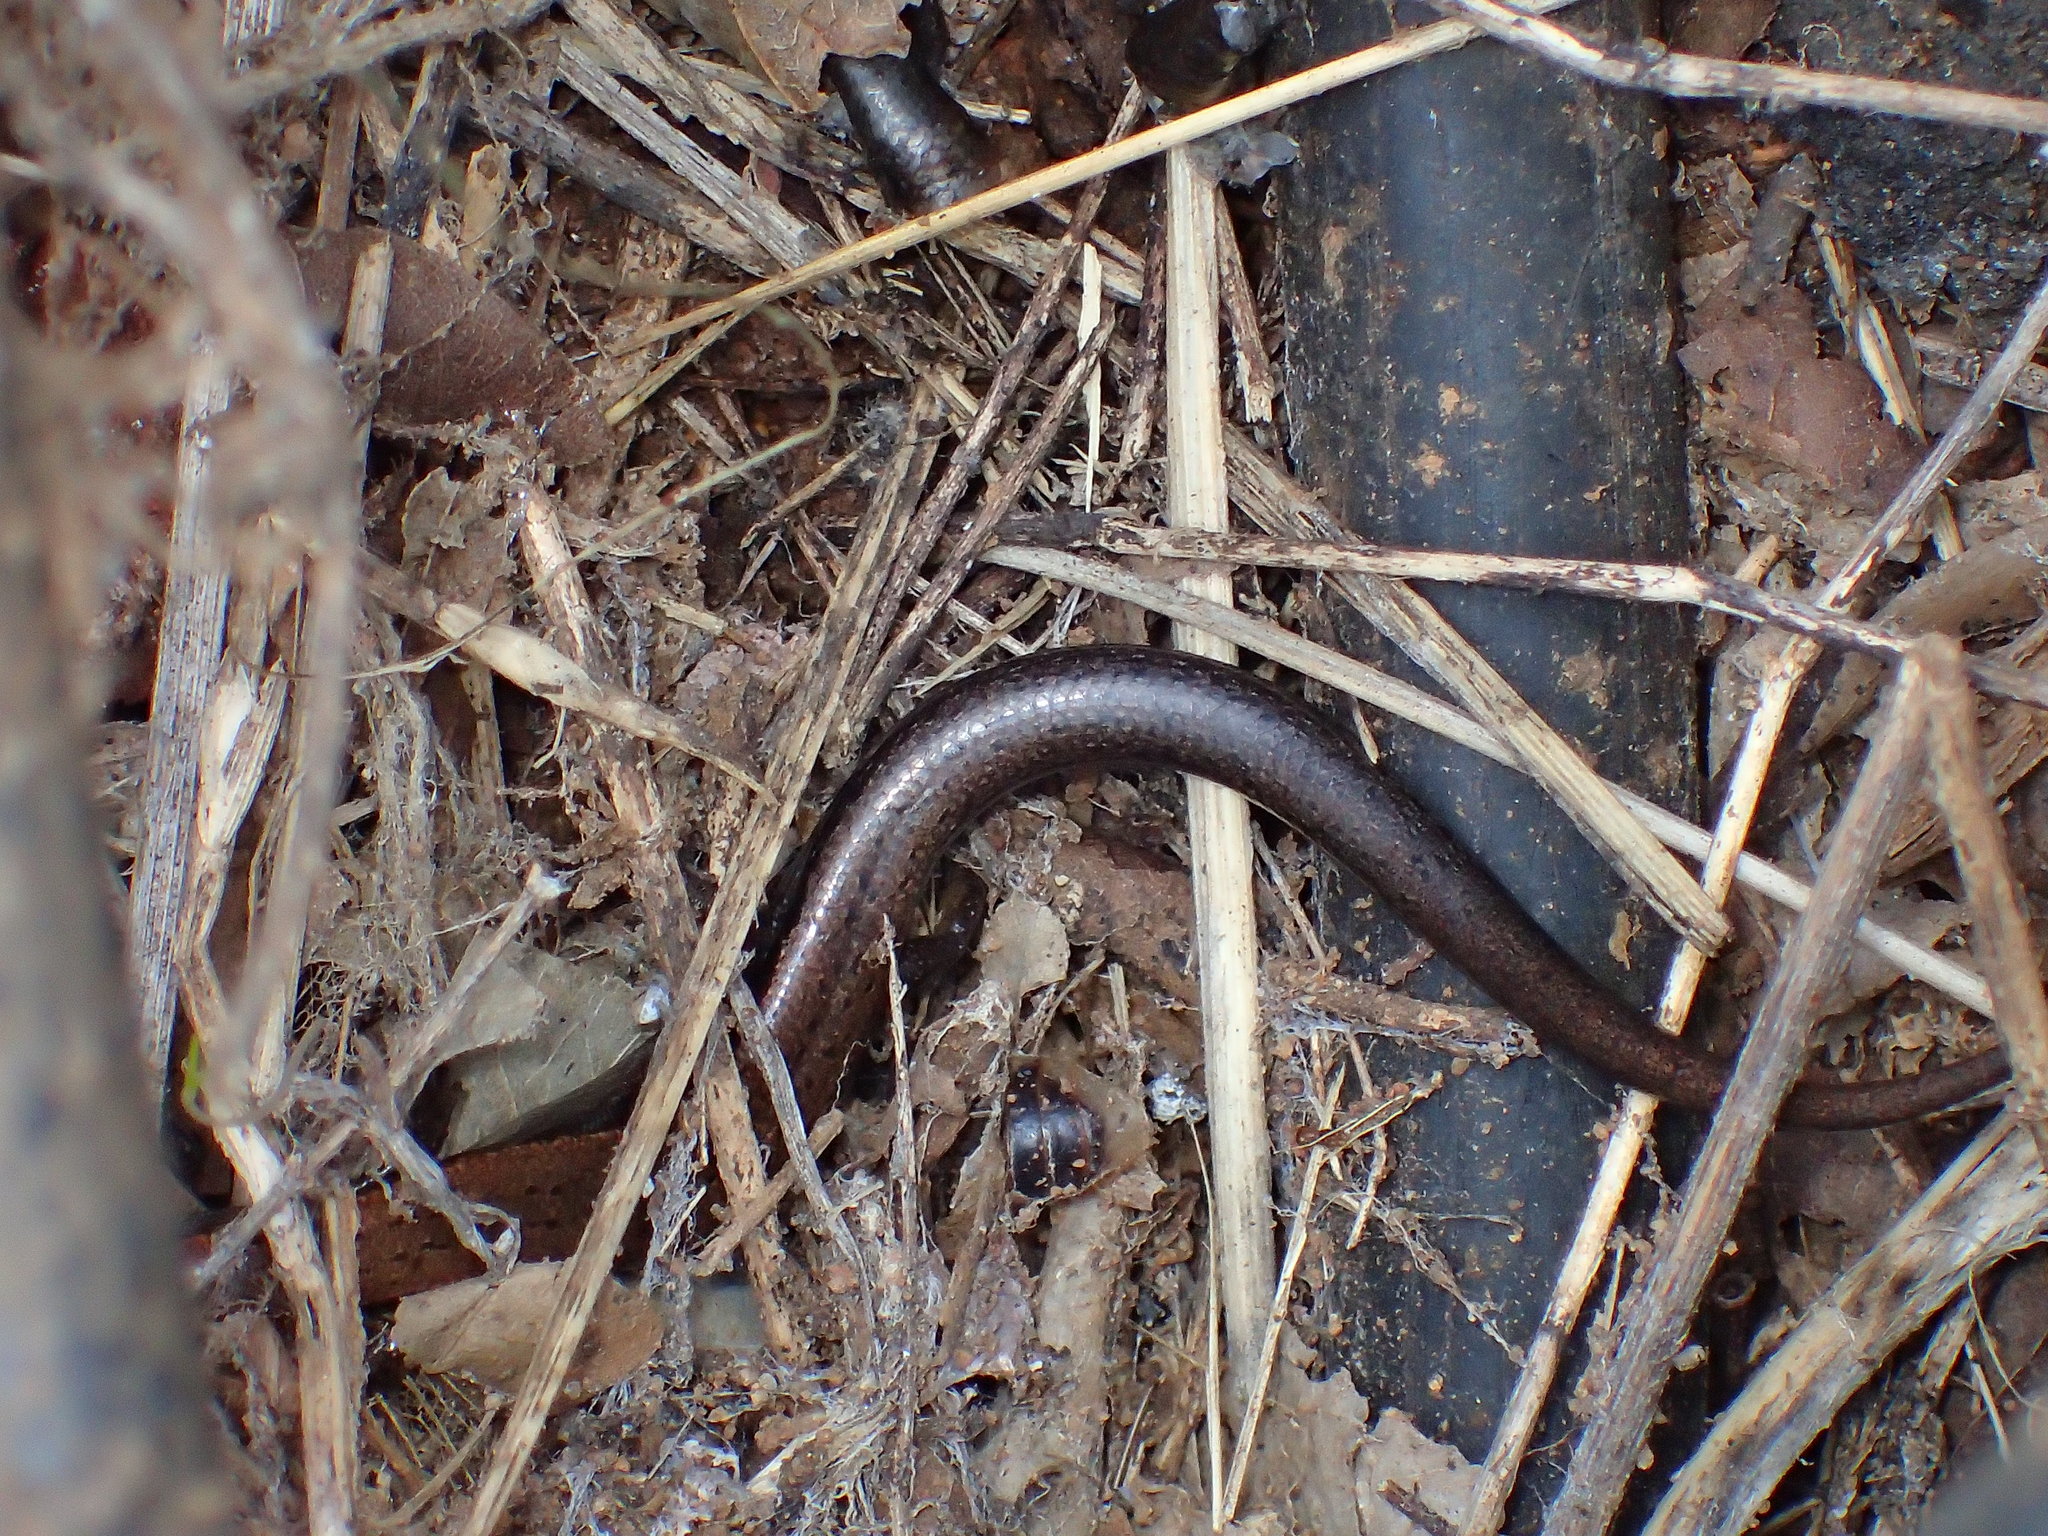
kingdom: Animalia
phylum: Chordata
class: Squamata
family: Scincidae
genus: Scincella
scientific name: Scincella lateralis
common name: Ground skink
